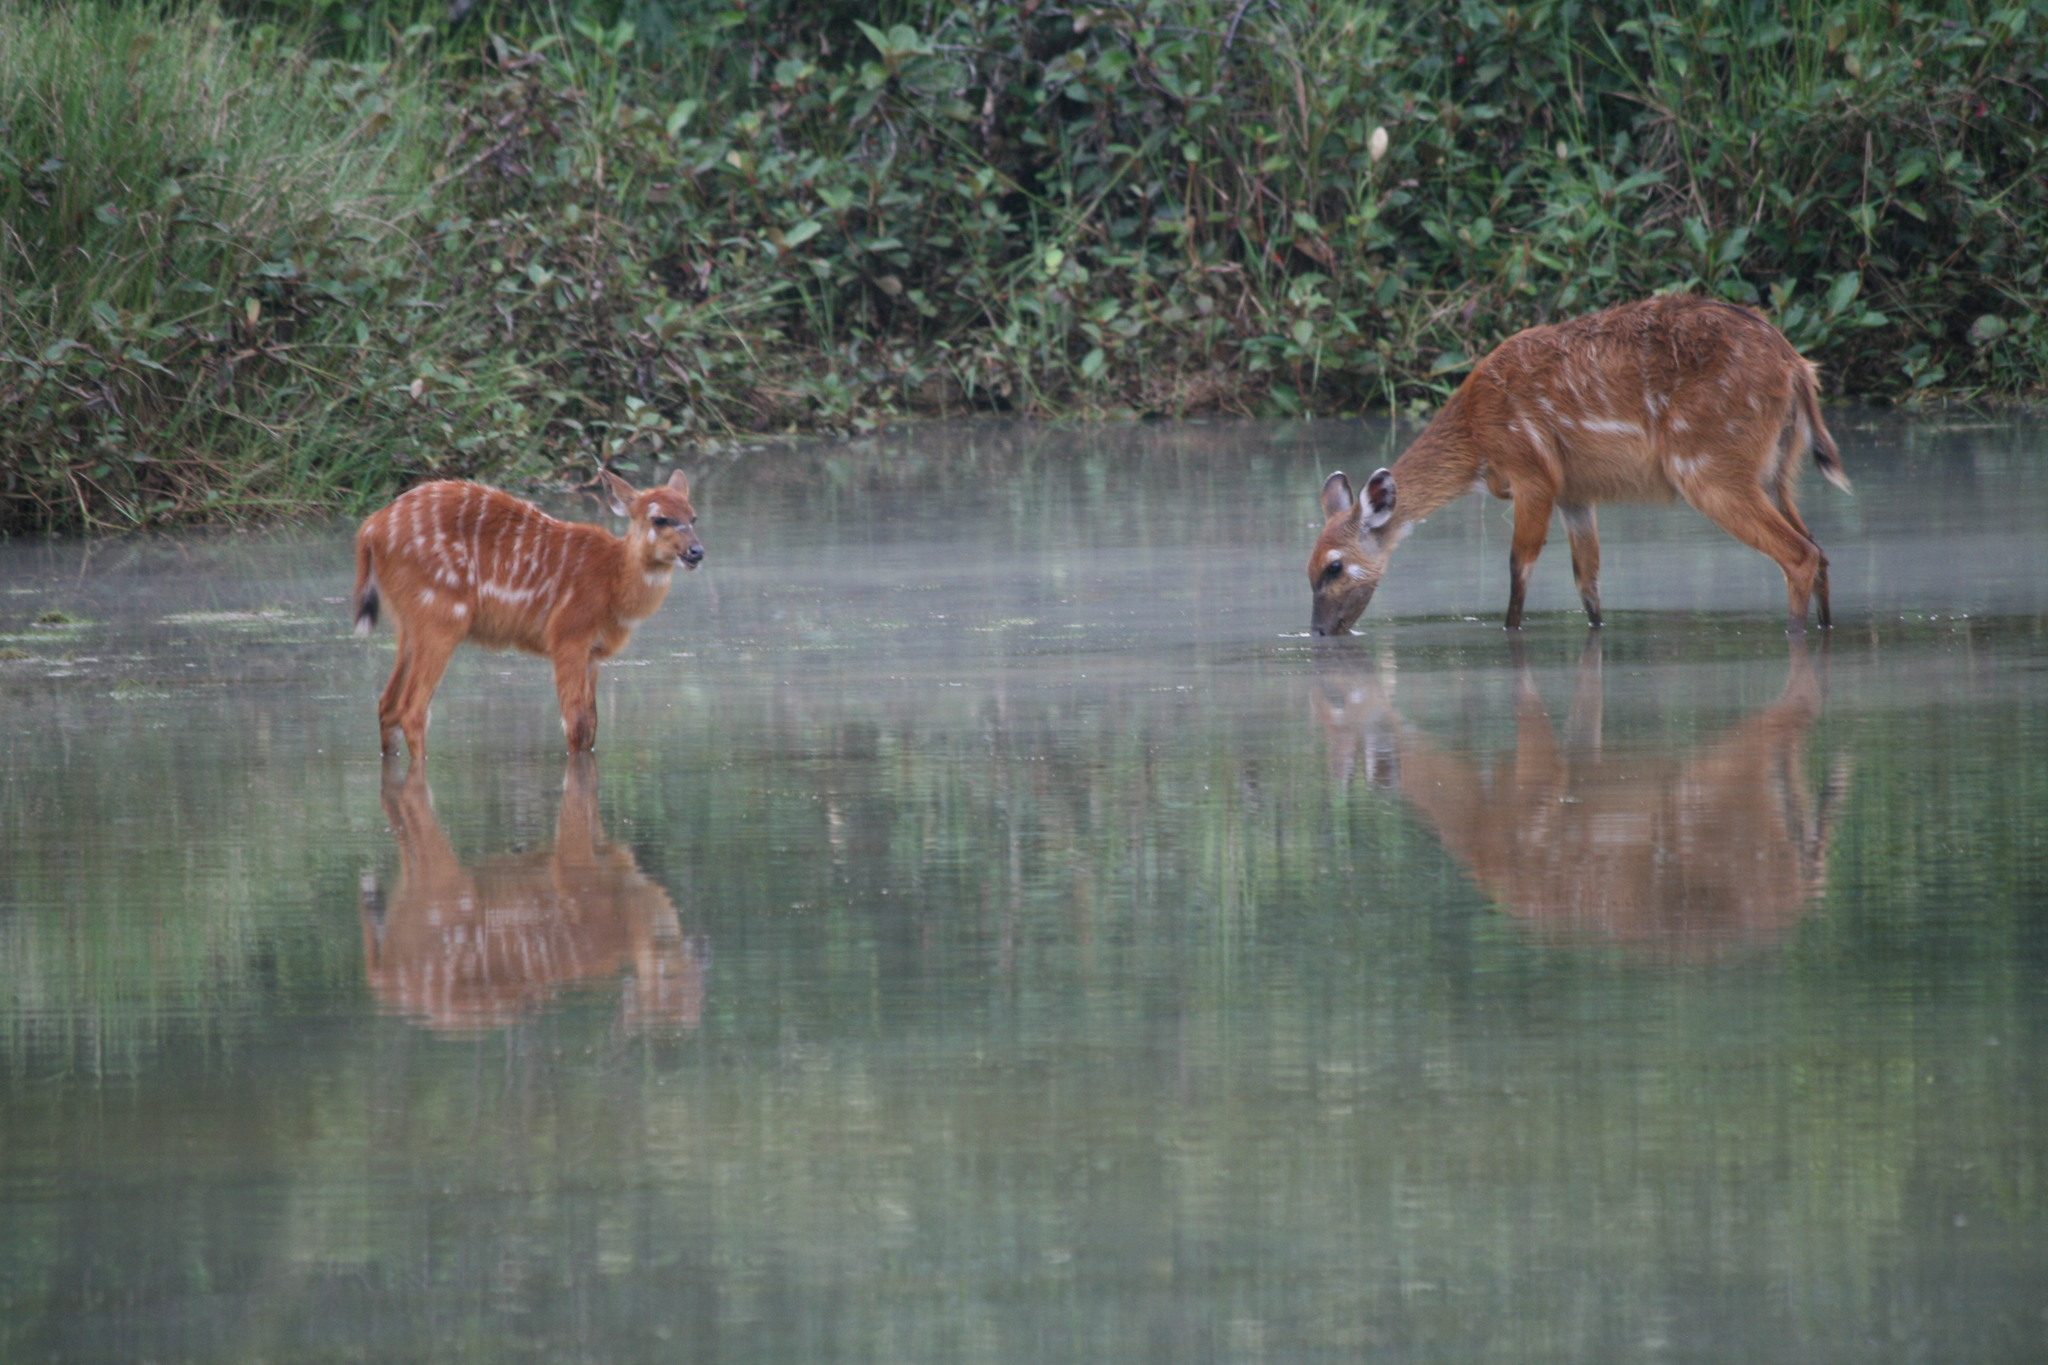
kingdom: Animalia
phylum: Chordata
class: Mammalia
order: Artiodactyla
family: Bovidae
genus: Tragelaphus
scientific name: Tragelaphus spekii
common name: Sitatunga
